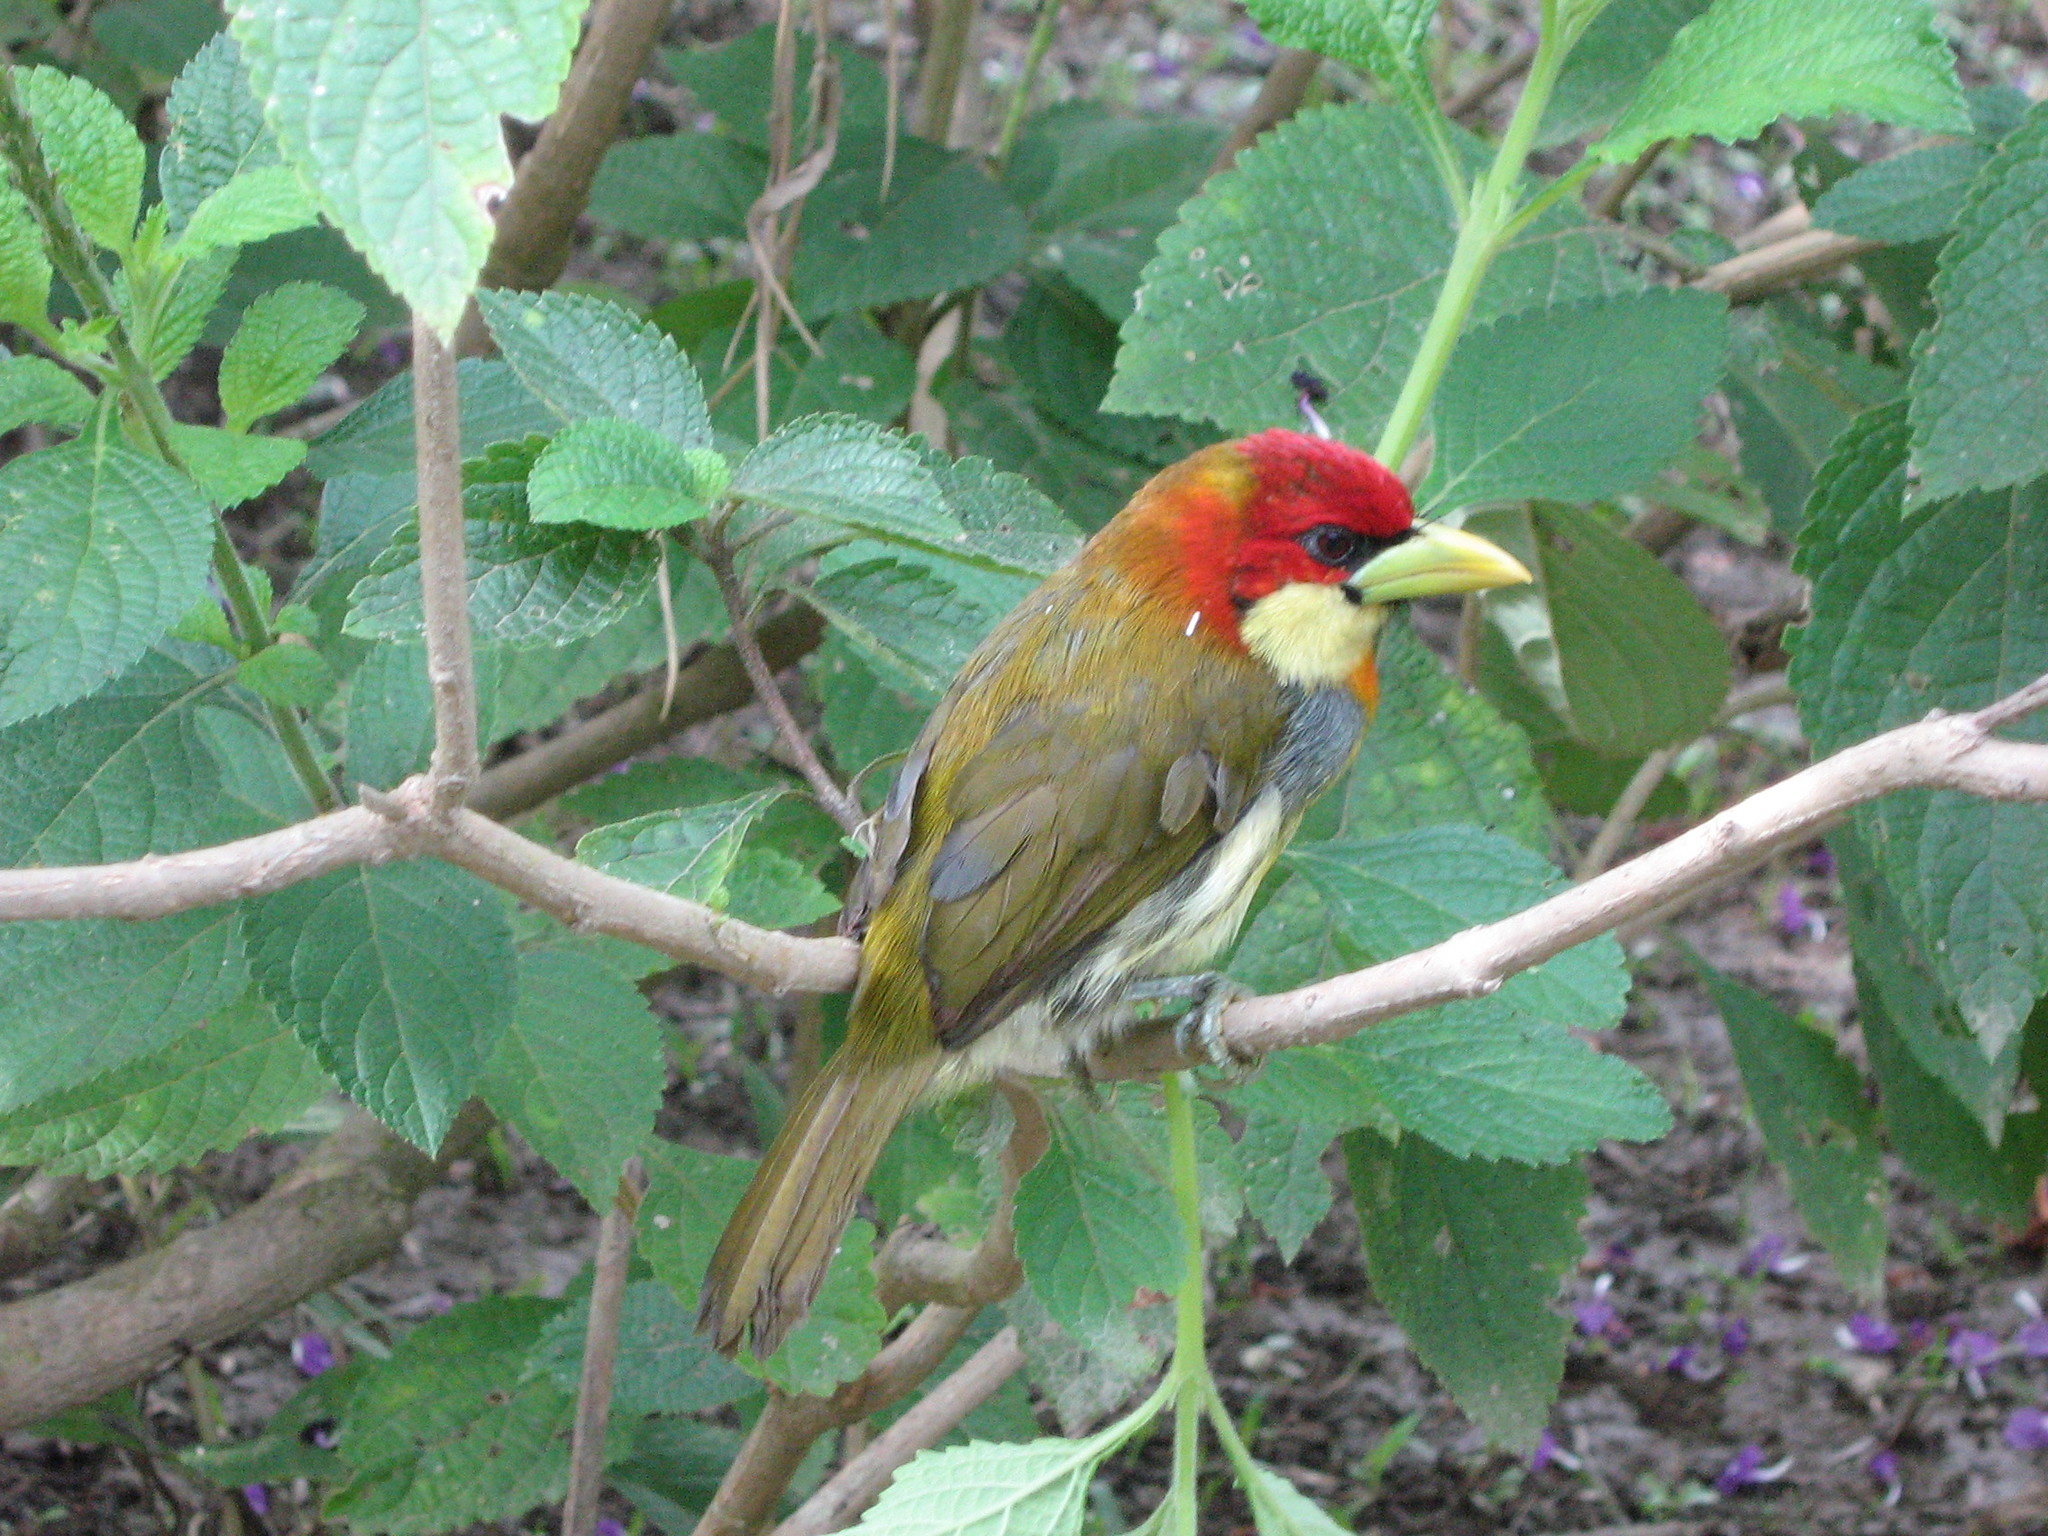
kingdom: Animalia
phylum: Chordata
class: Aves
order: Piciformes
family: Capitonidae
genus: Eubucco
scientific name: Eubucco tucinkae
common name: Scarlet-hooded barbet
